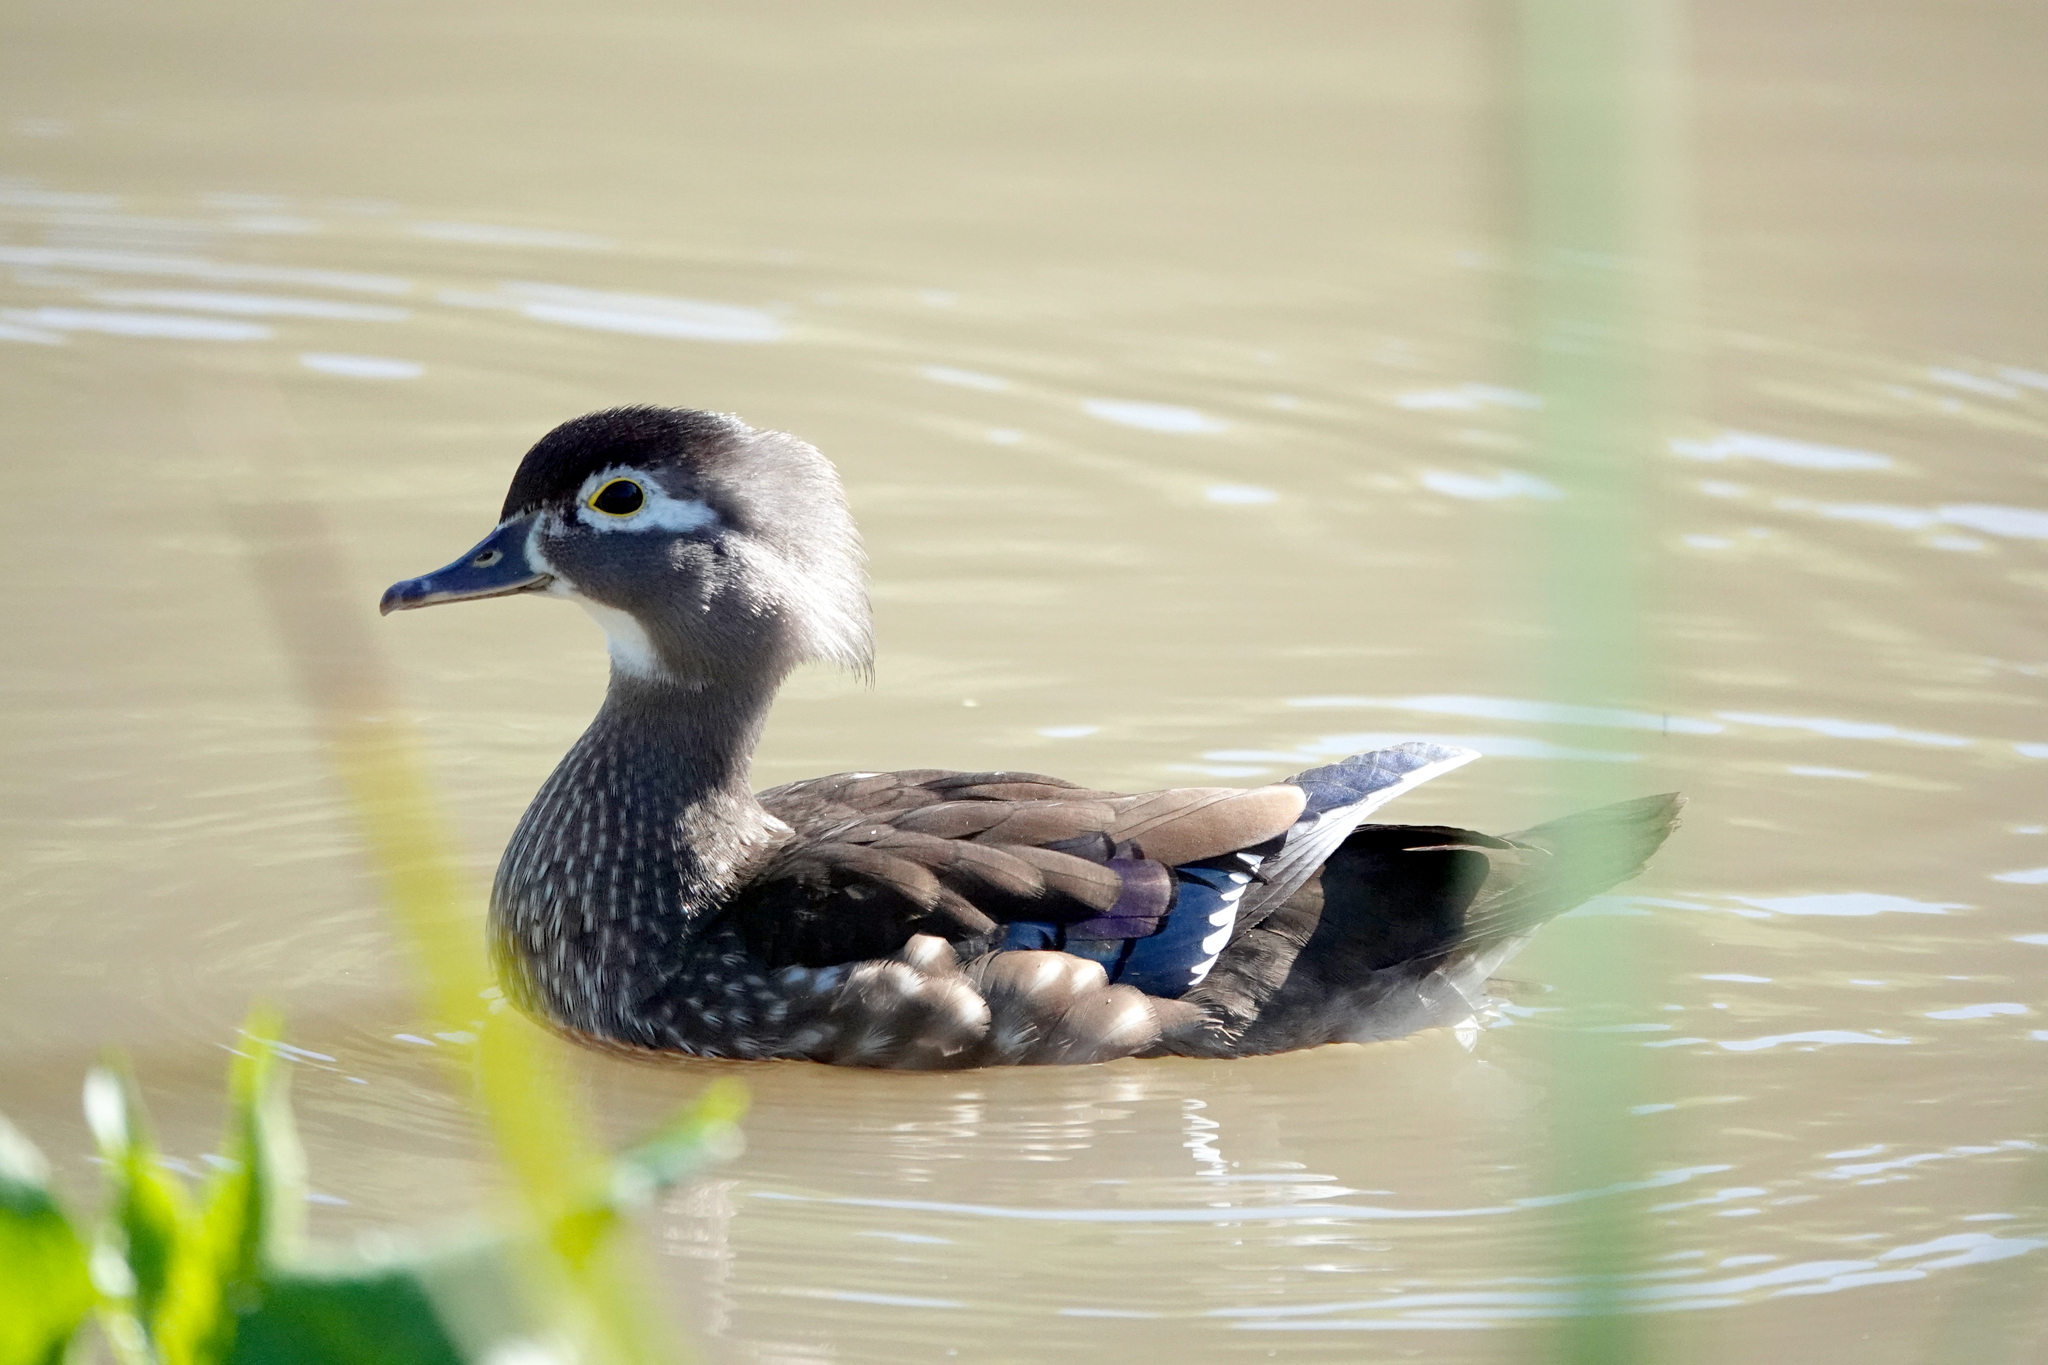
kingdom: Animalia
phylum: Chordata
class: Aves
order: Anseriformes
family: Anatidae
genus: Aix
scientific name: Aix sponsa
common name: Wood duck
